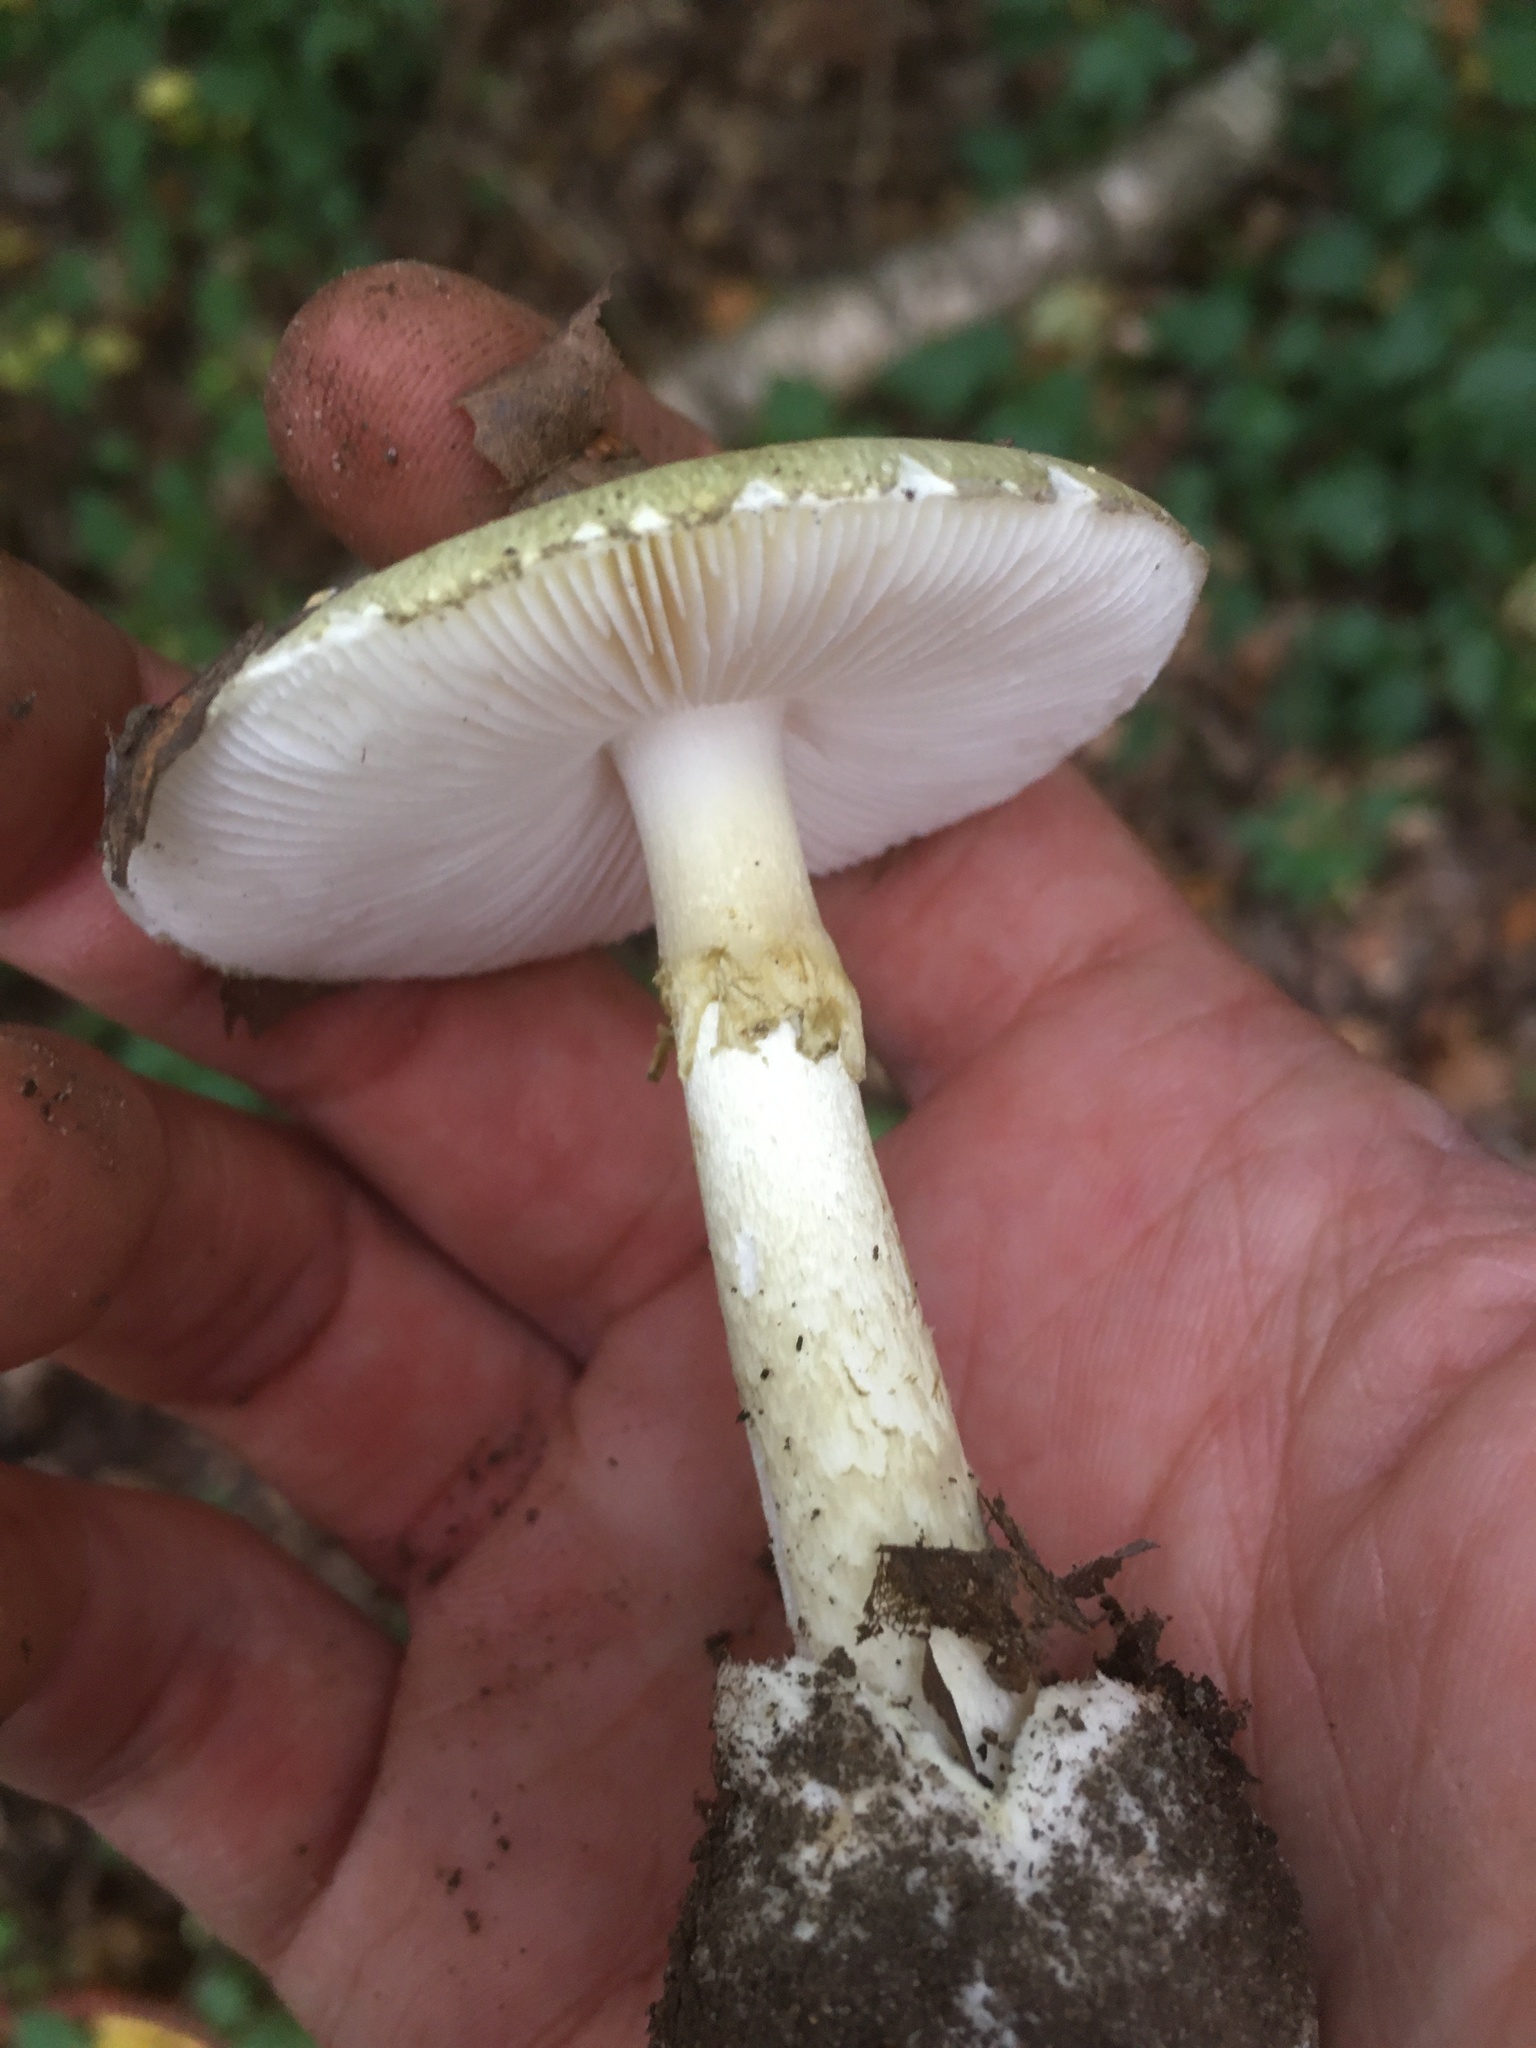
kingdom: Fungi
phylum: Basidiomycota
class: Agaricomycetes
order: Agaricales
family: Amanitaceae
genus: Amanita
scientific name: Amanita phalloides
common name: Death cap
